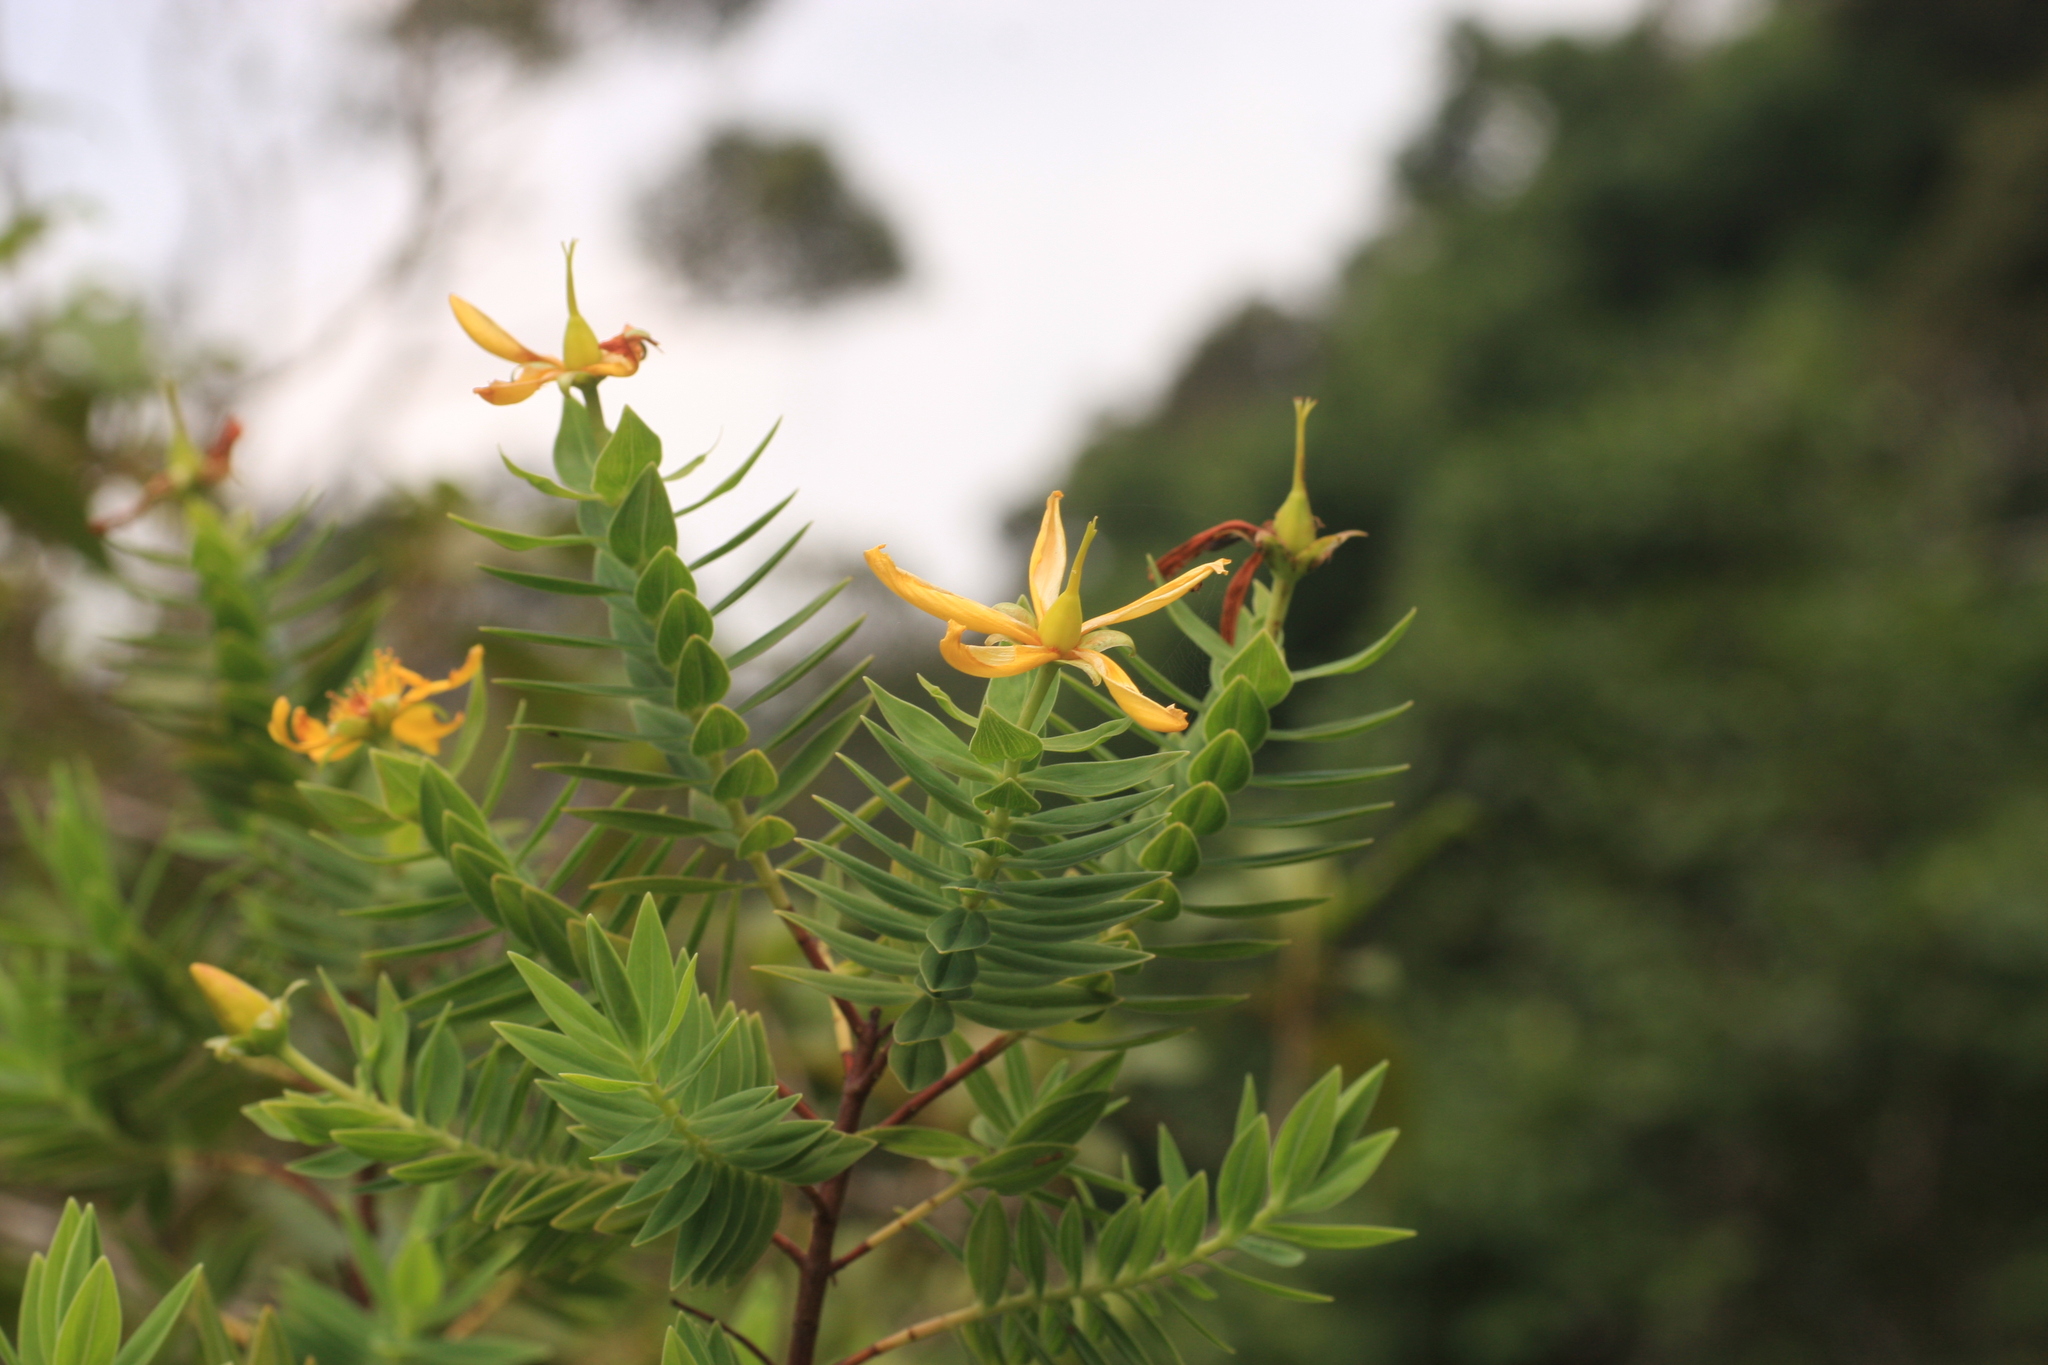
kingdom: Plantae
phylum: Tracheophyta
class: Magnoliopsida
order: Malpighiales
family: Hypericaceae
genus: Hypericum
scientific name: Hypericum mysurense
